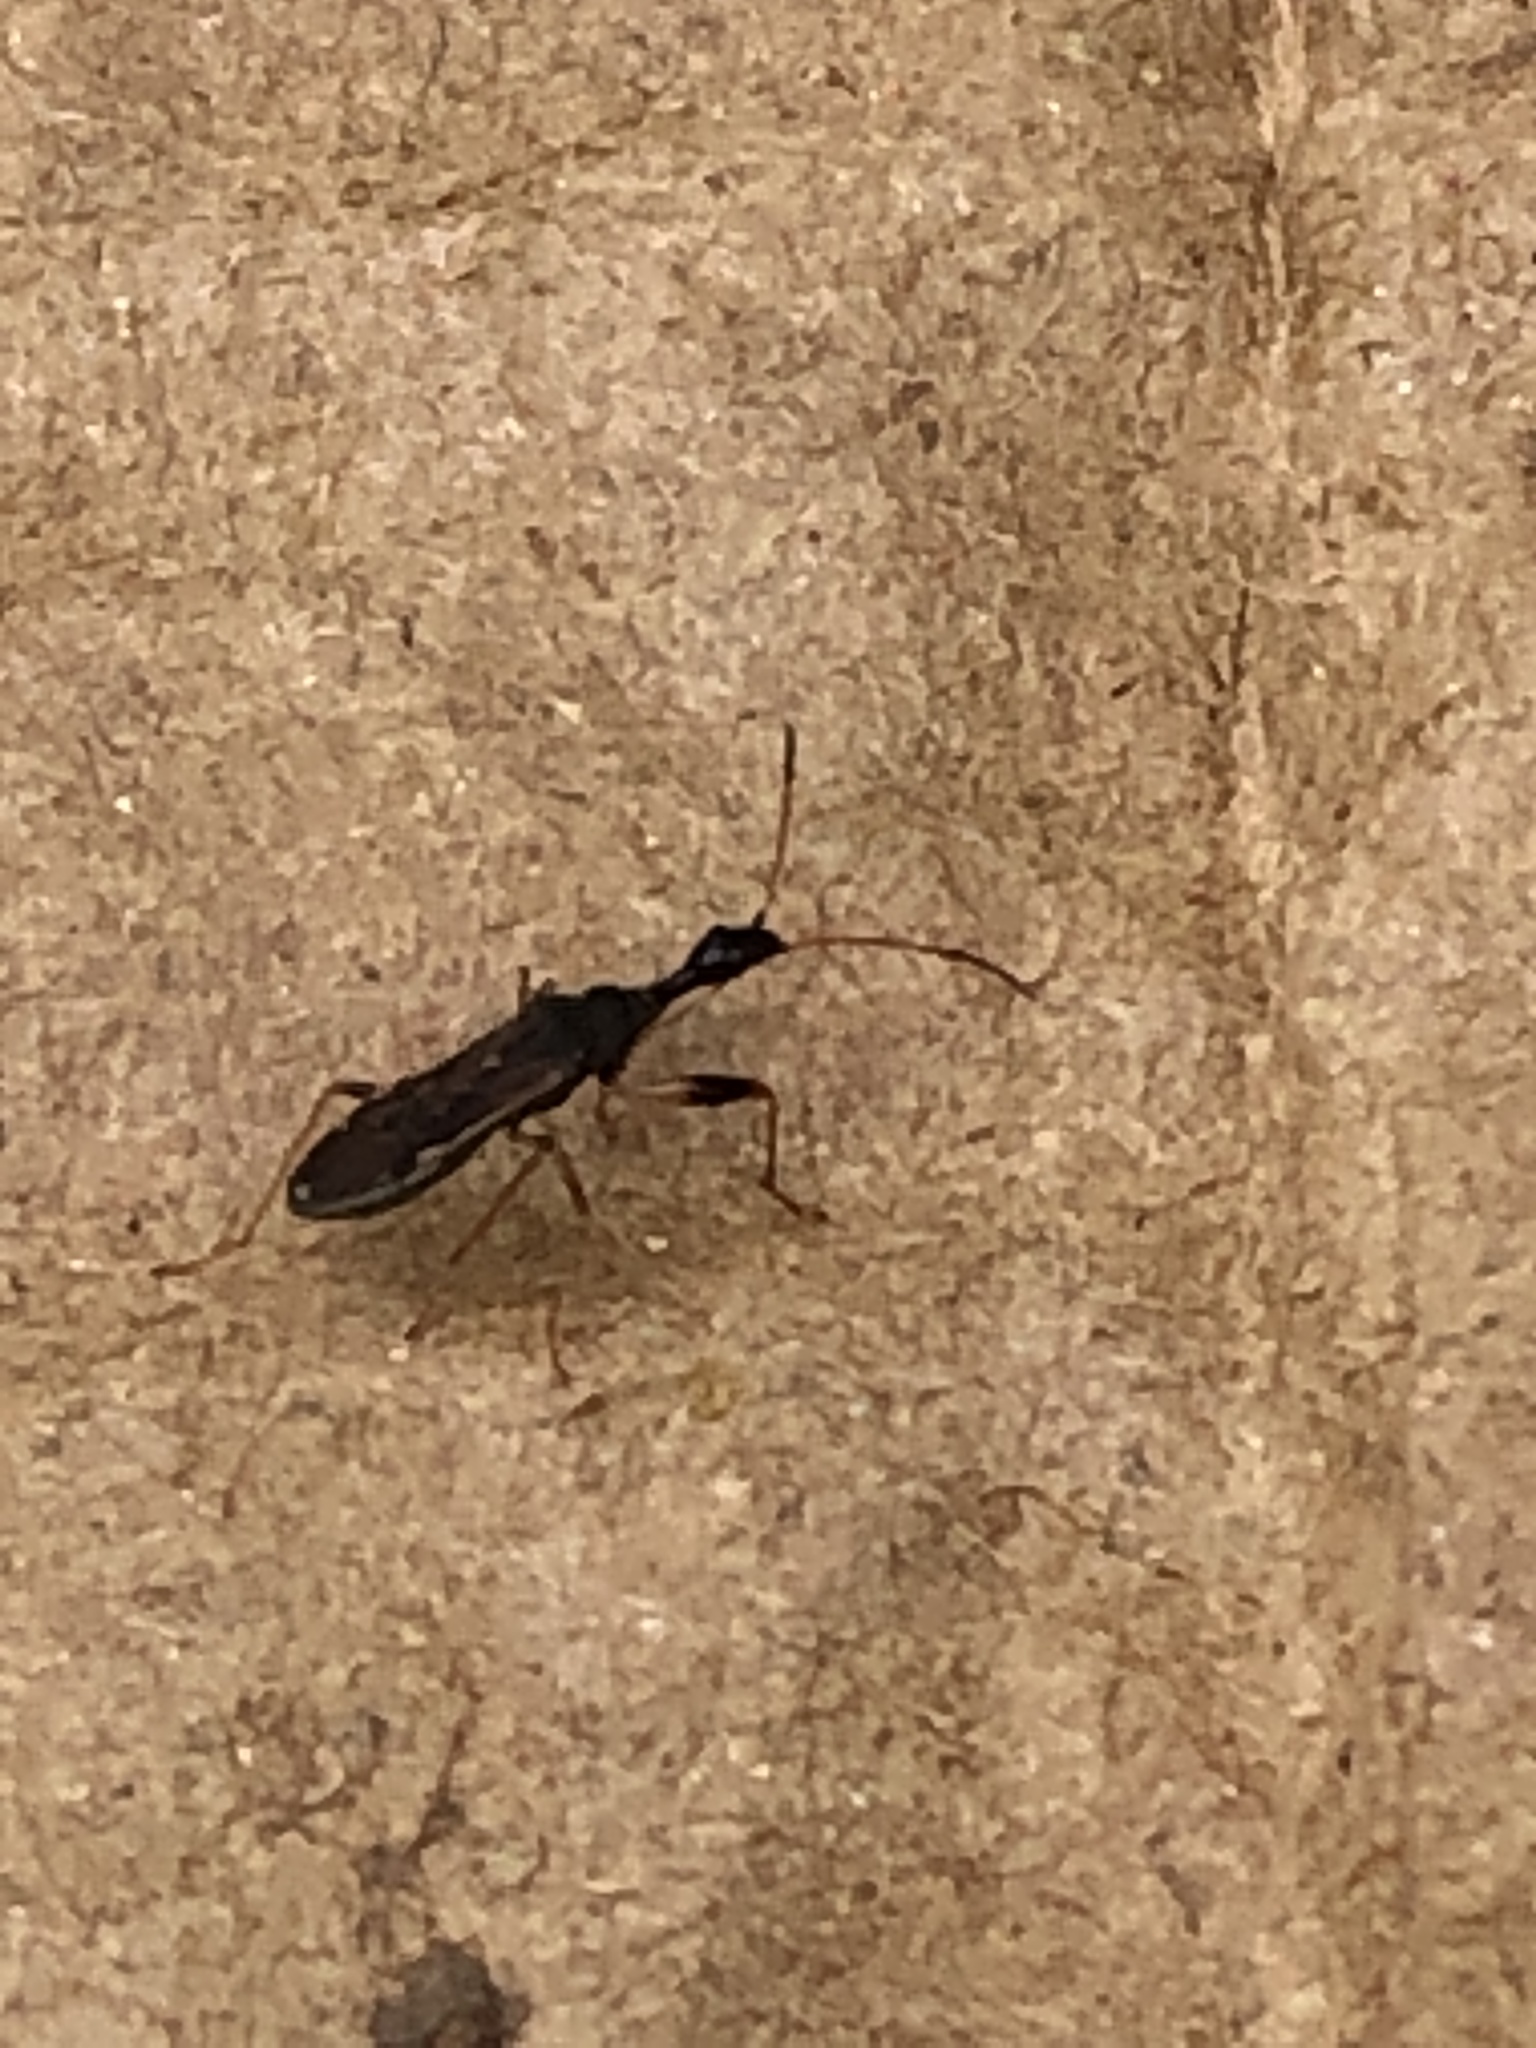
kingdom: Animalia
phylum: Arthropoda
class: Insecta
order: Hemiptera
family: Rhyparochromidae
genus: Myodocha
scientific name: Myodocha serripes
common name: Long-necked seed bug
